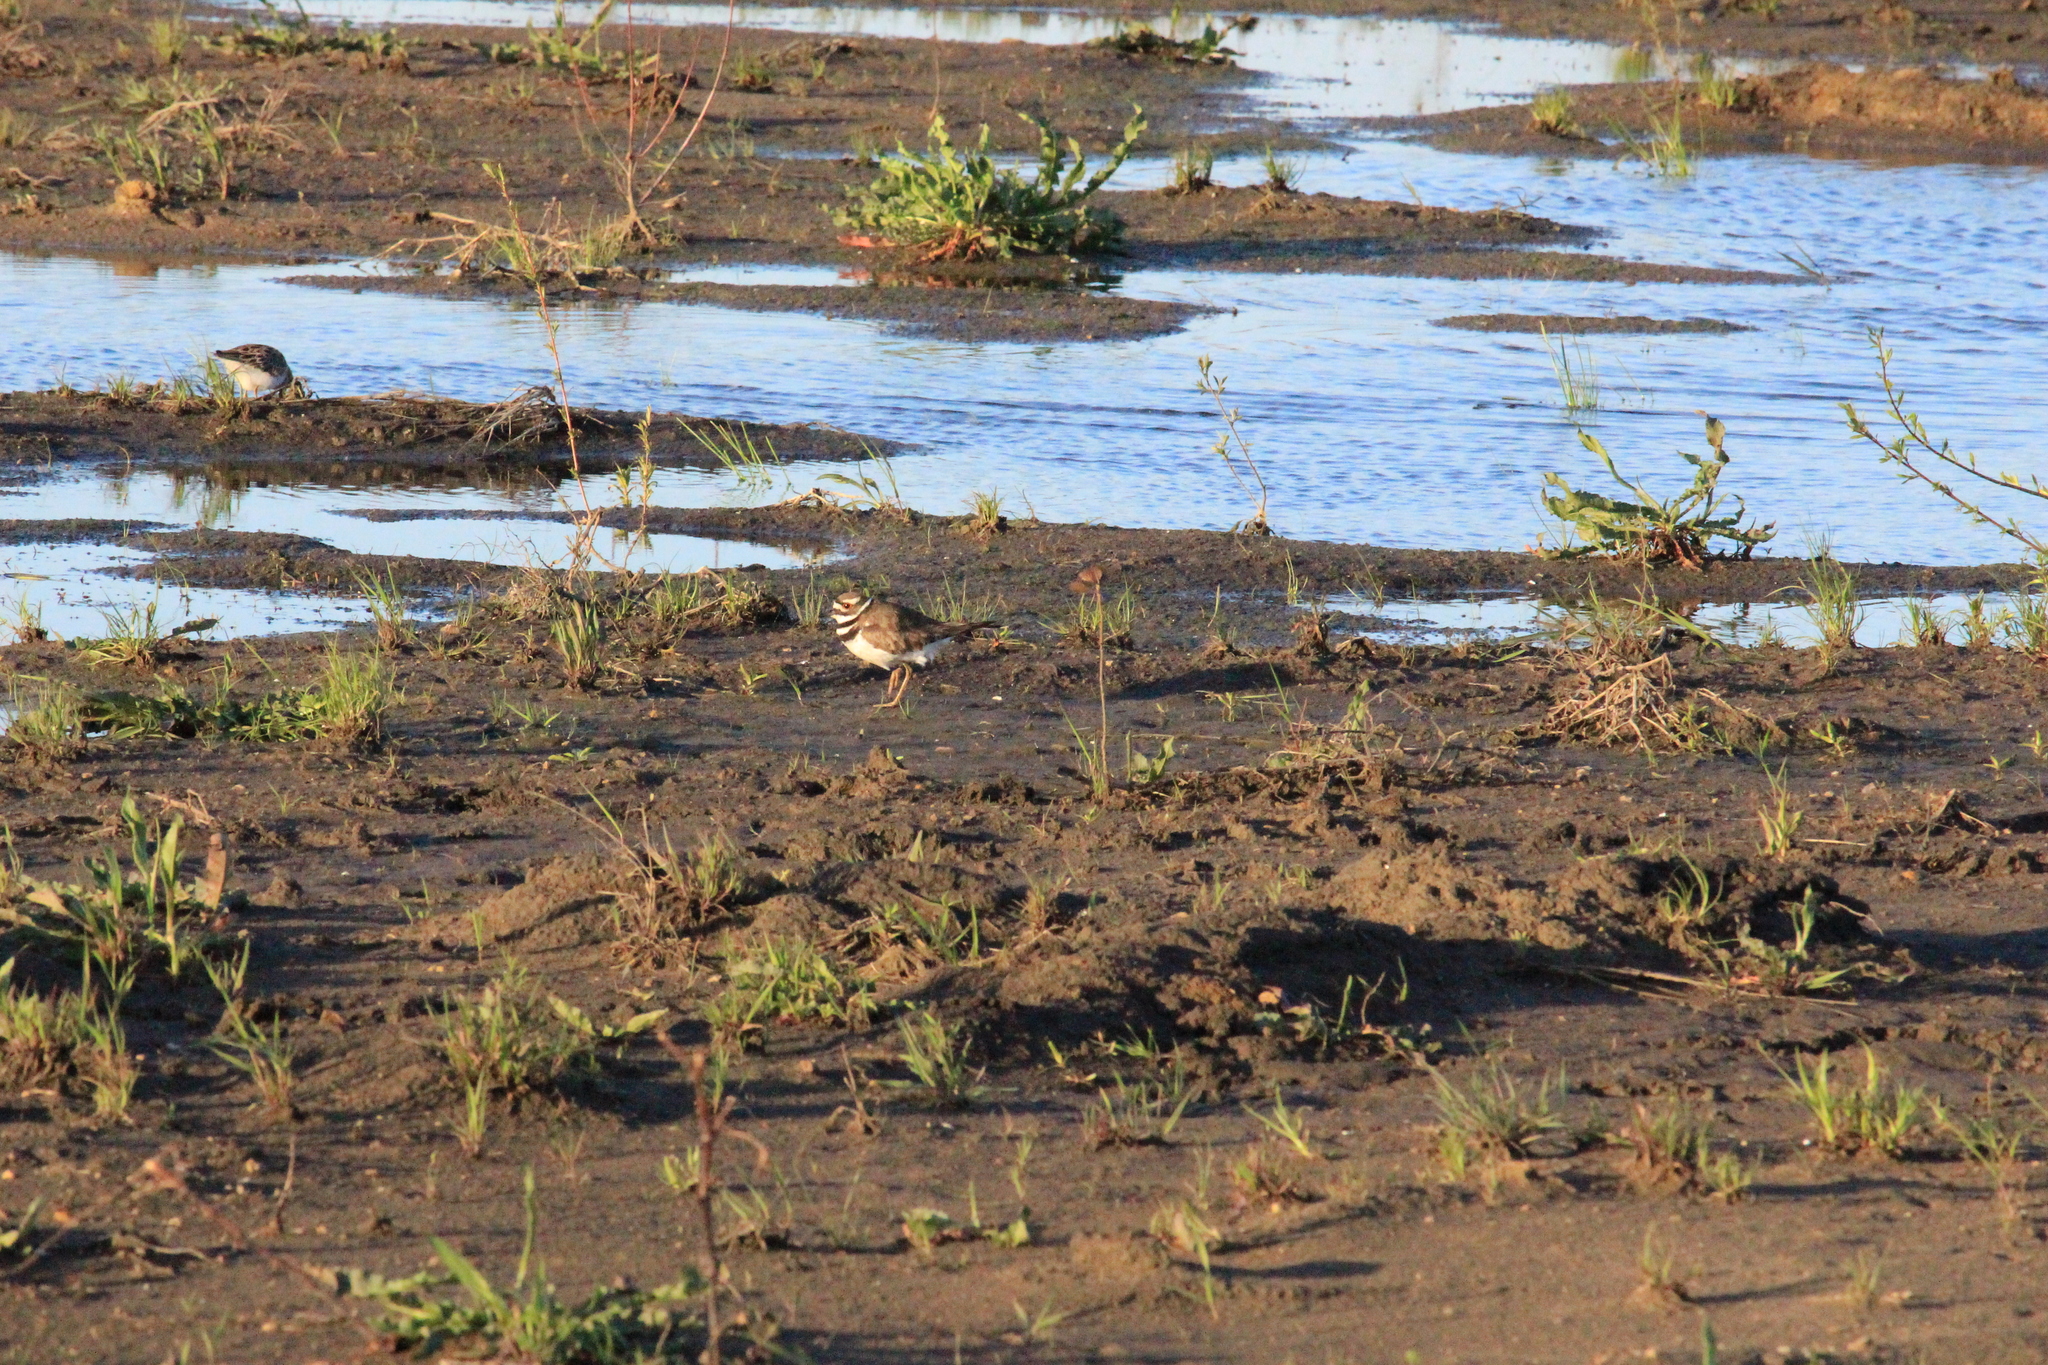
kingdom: Animalia
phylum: Chordata
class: Aves
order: Charadriiformes
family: Charadriidae
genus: Charadrius
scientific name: Charadrius vociferus
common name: Killdeer
